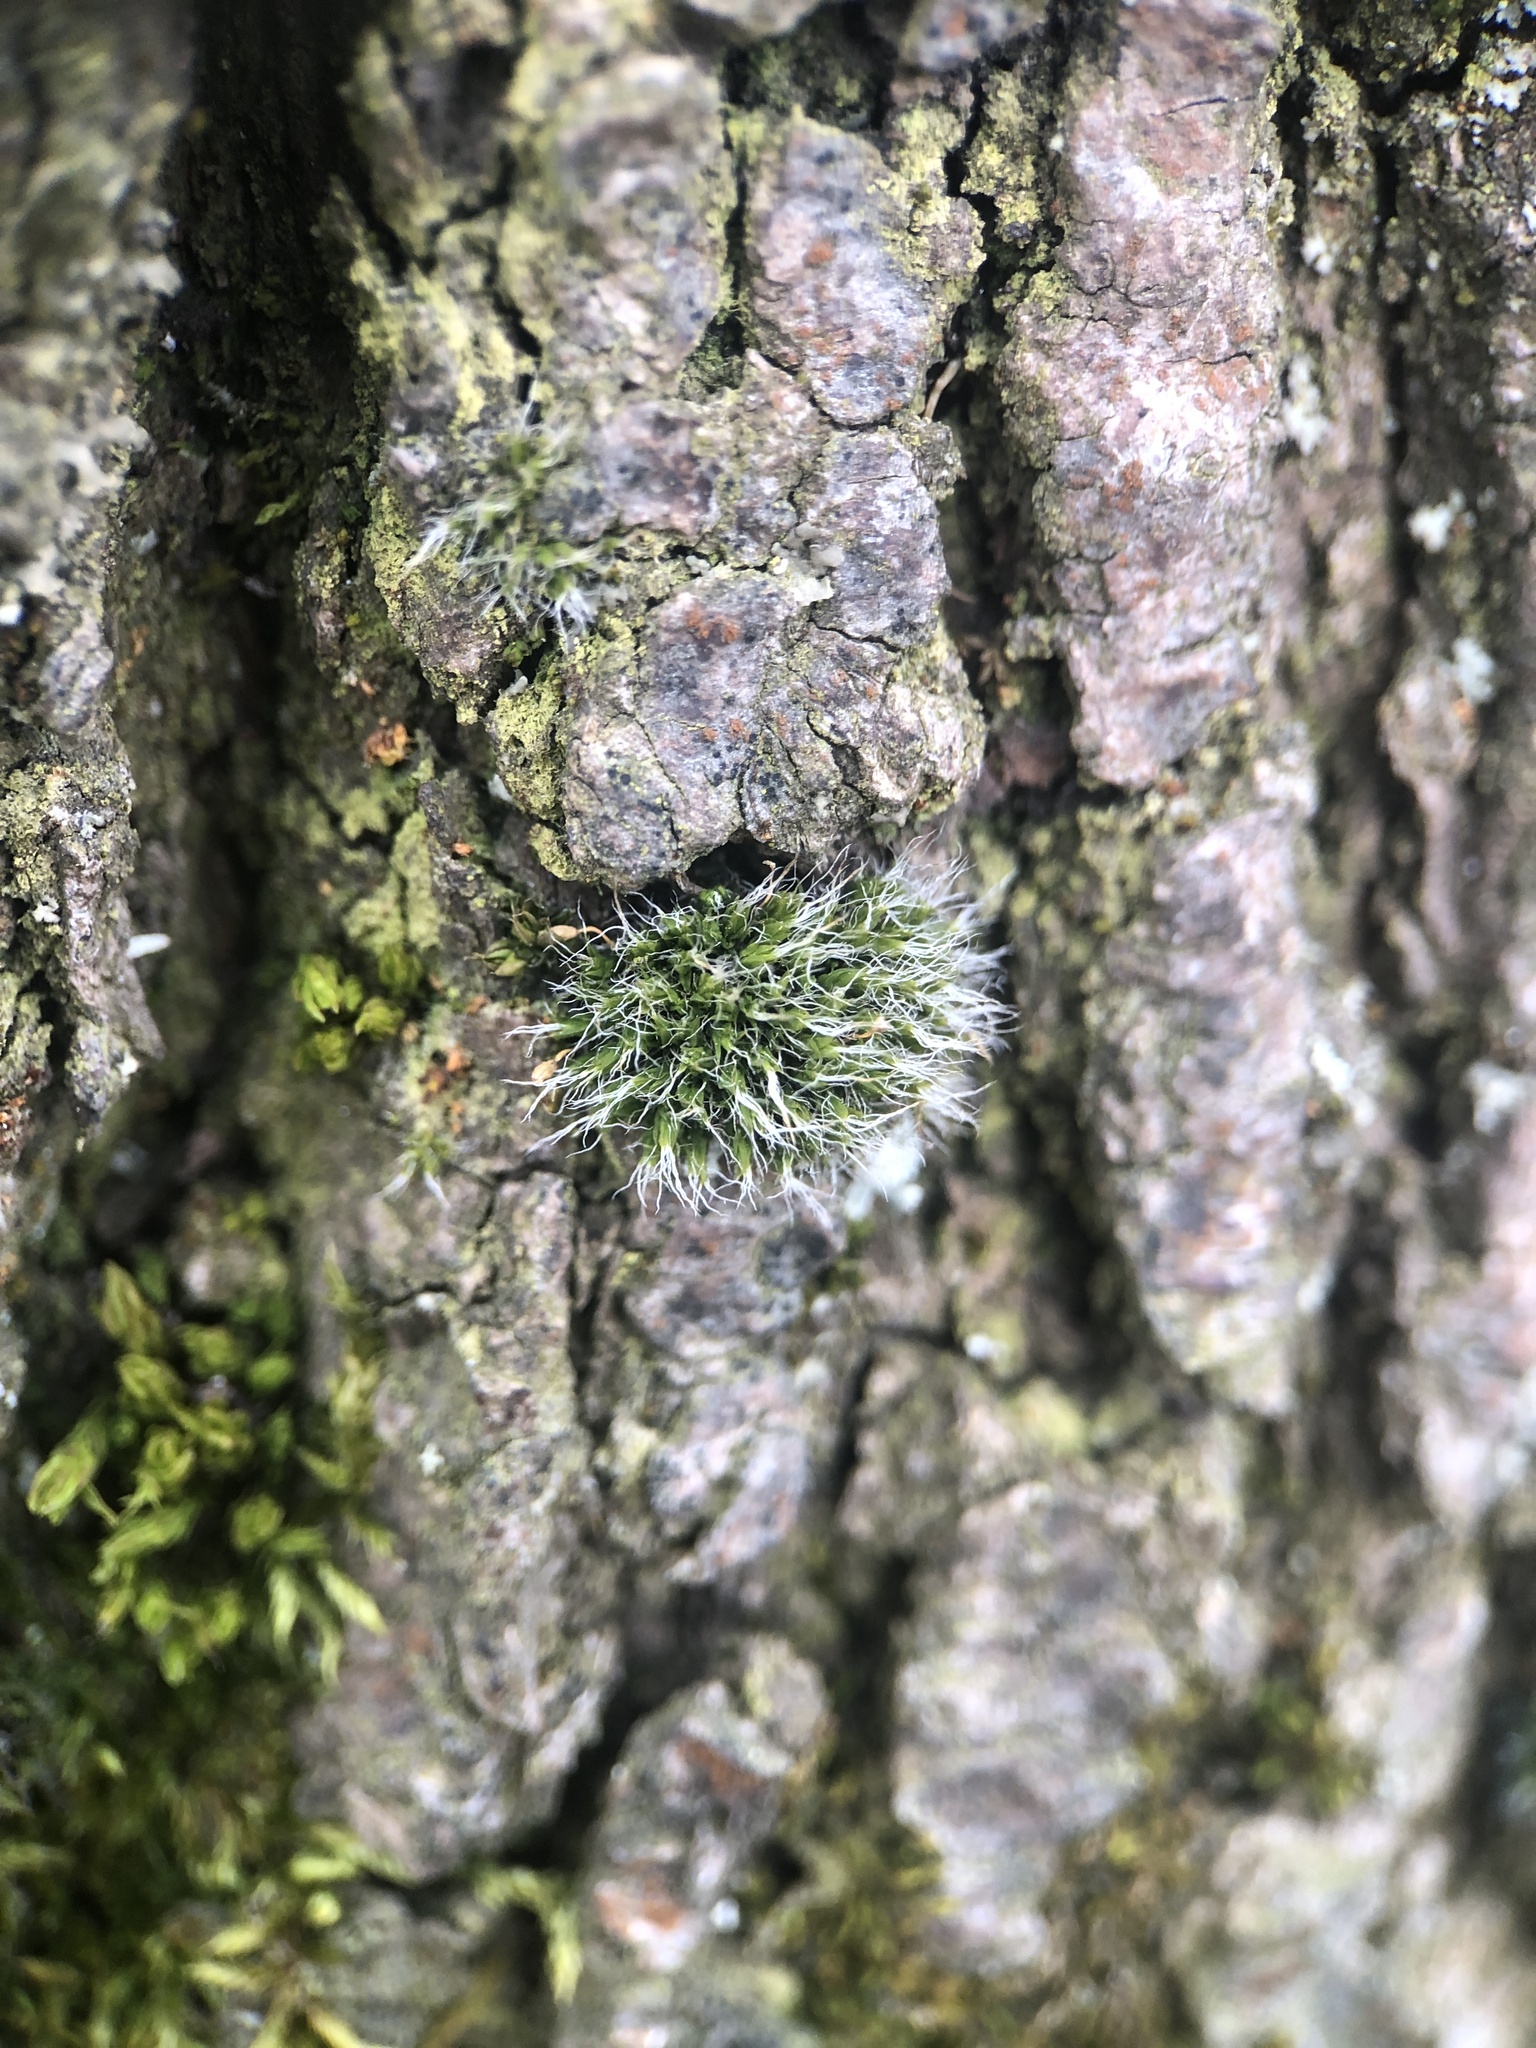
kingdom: Plantae
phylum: Bryophyta
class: Bryopsida
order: Grimmiales
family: Grimmiaceae
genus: Grimmia
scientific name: Grimmia pulvinata
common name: Grey-cushioned grimmia
